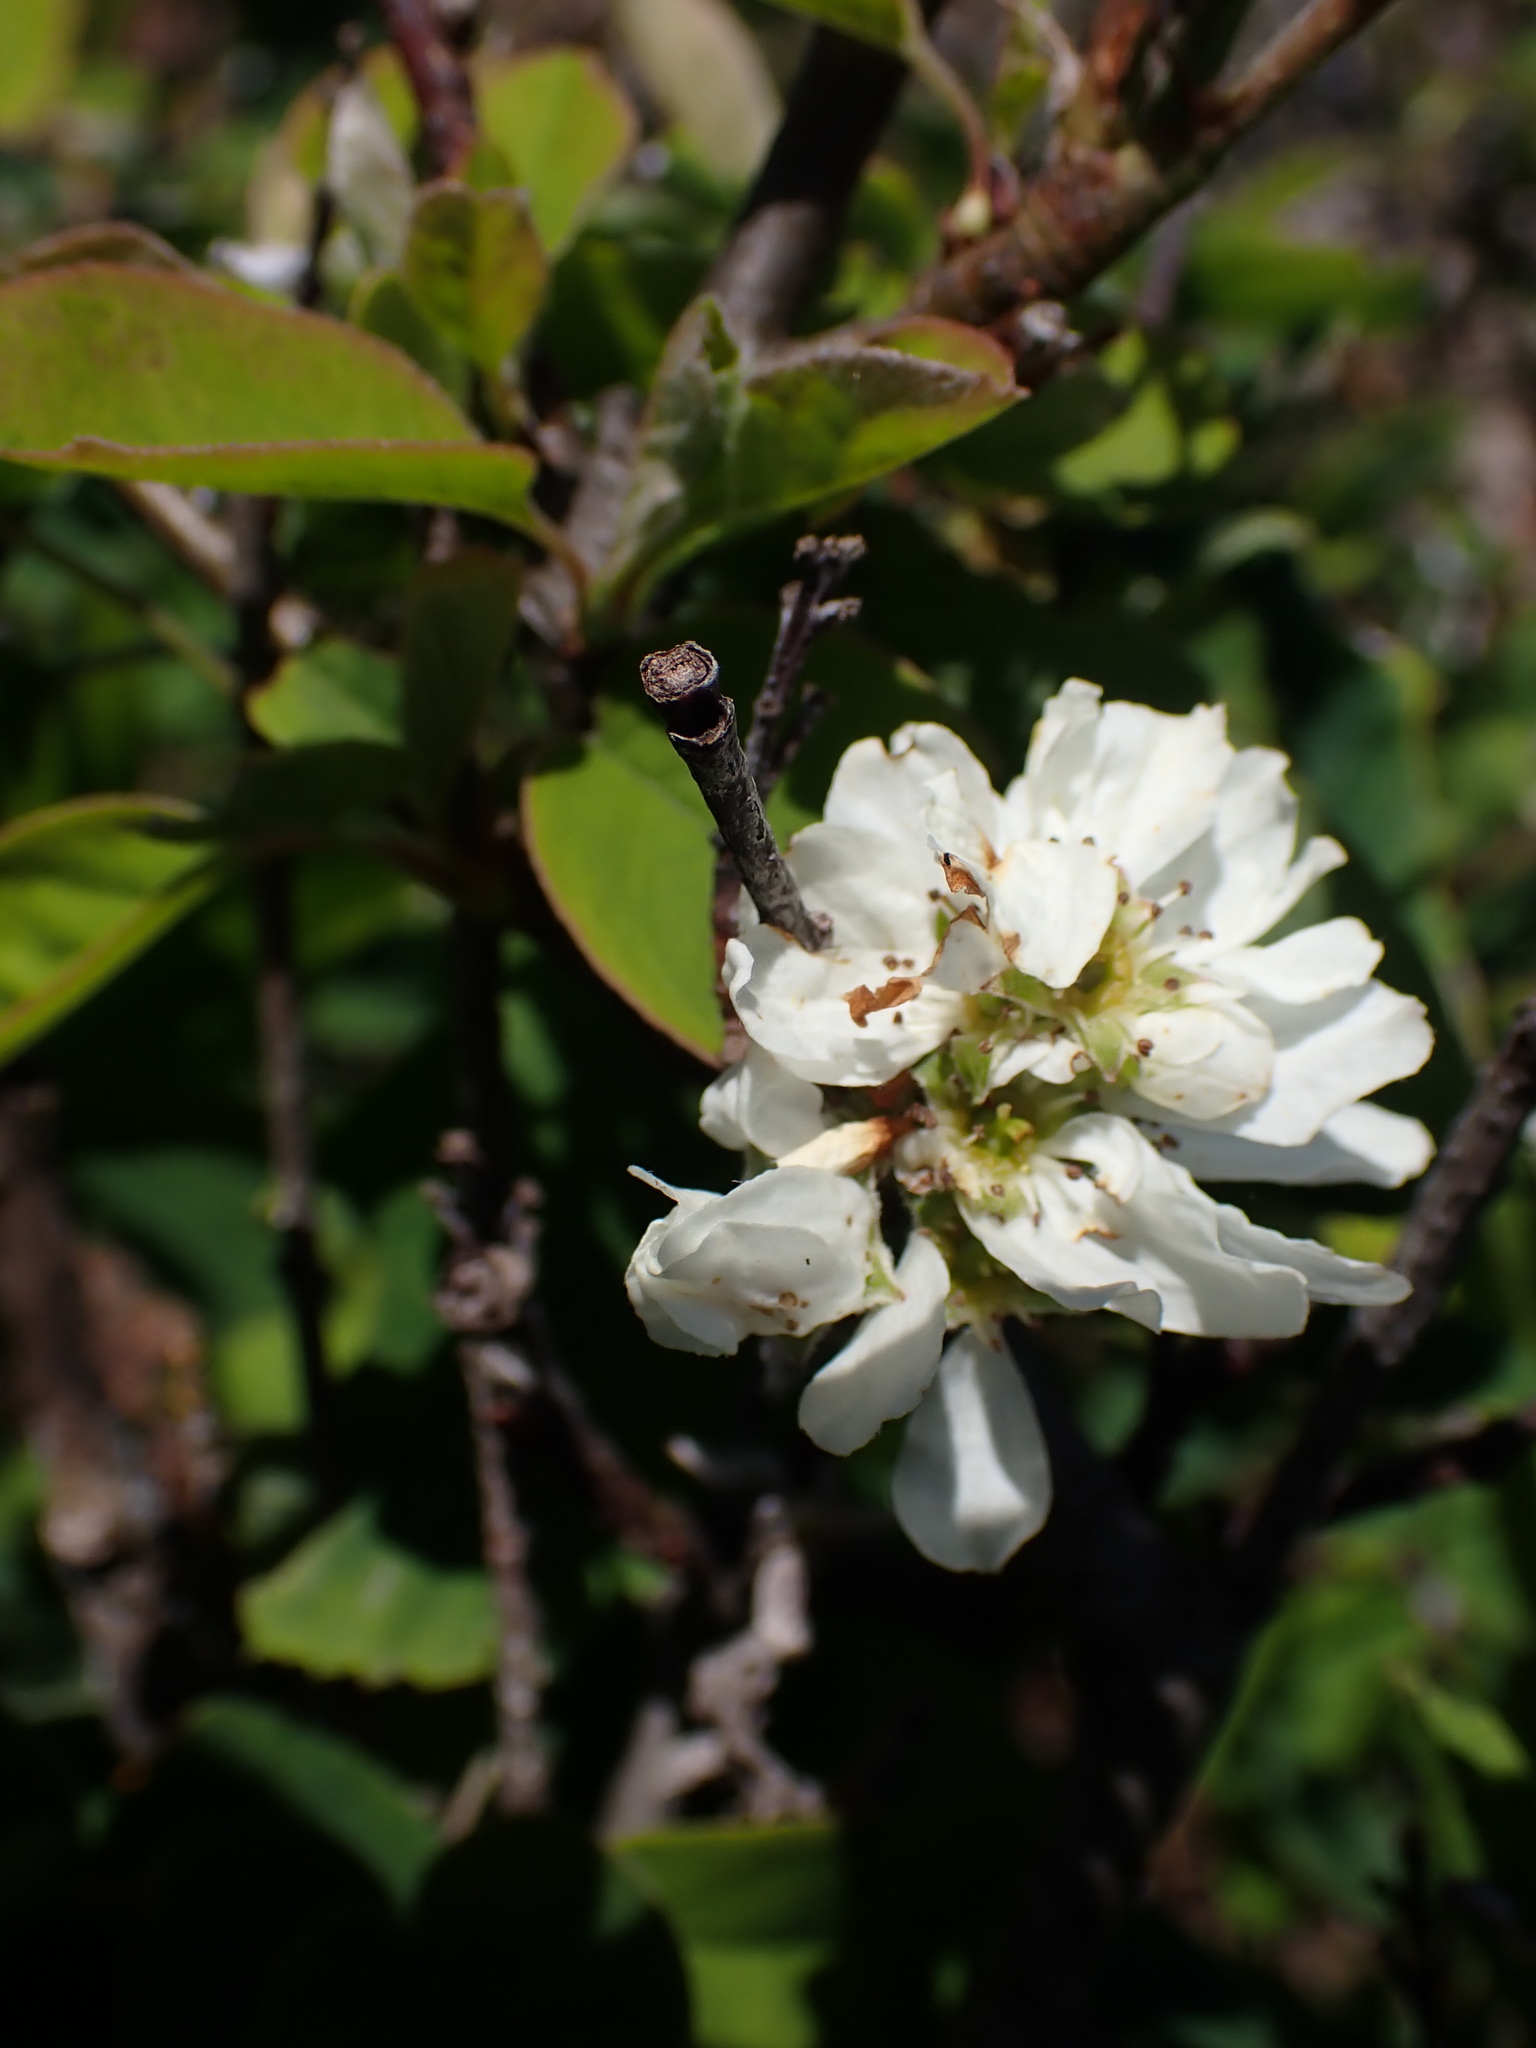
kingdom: Plantae
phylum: Tracheophyta
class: Magnoliopsida
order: Rosales
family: Rosaceae
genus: Amelanchier
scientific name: Amelanchier alnifolia
